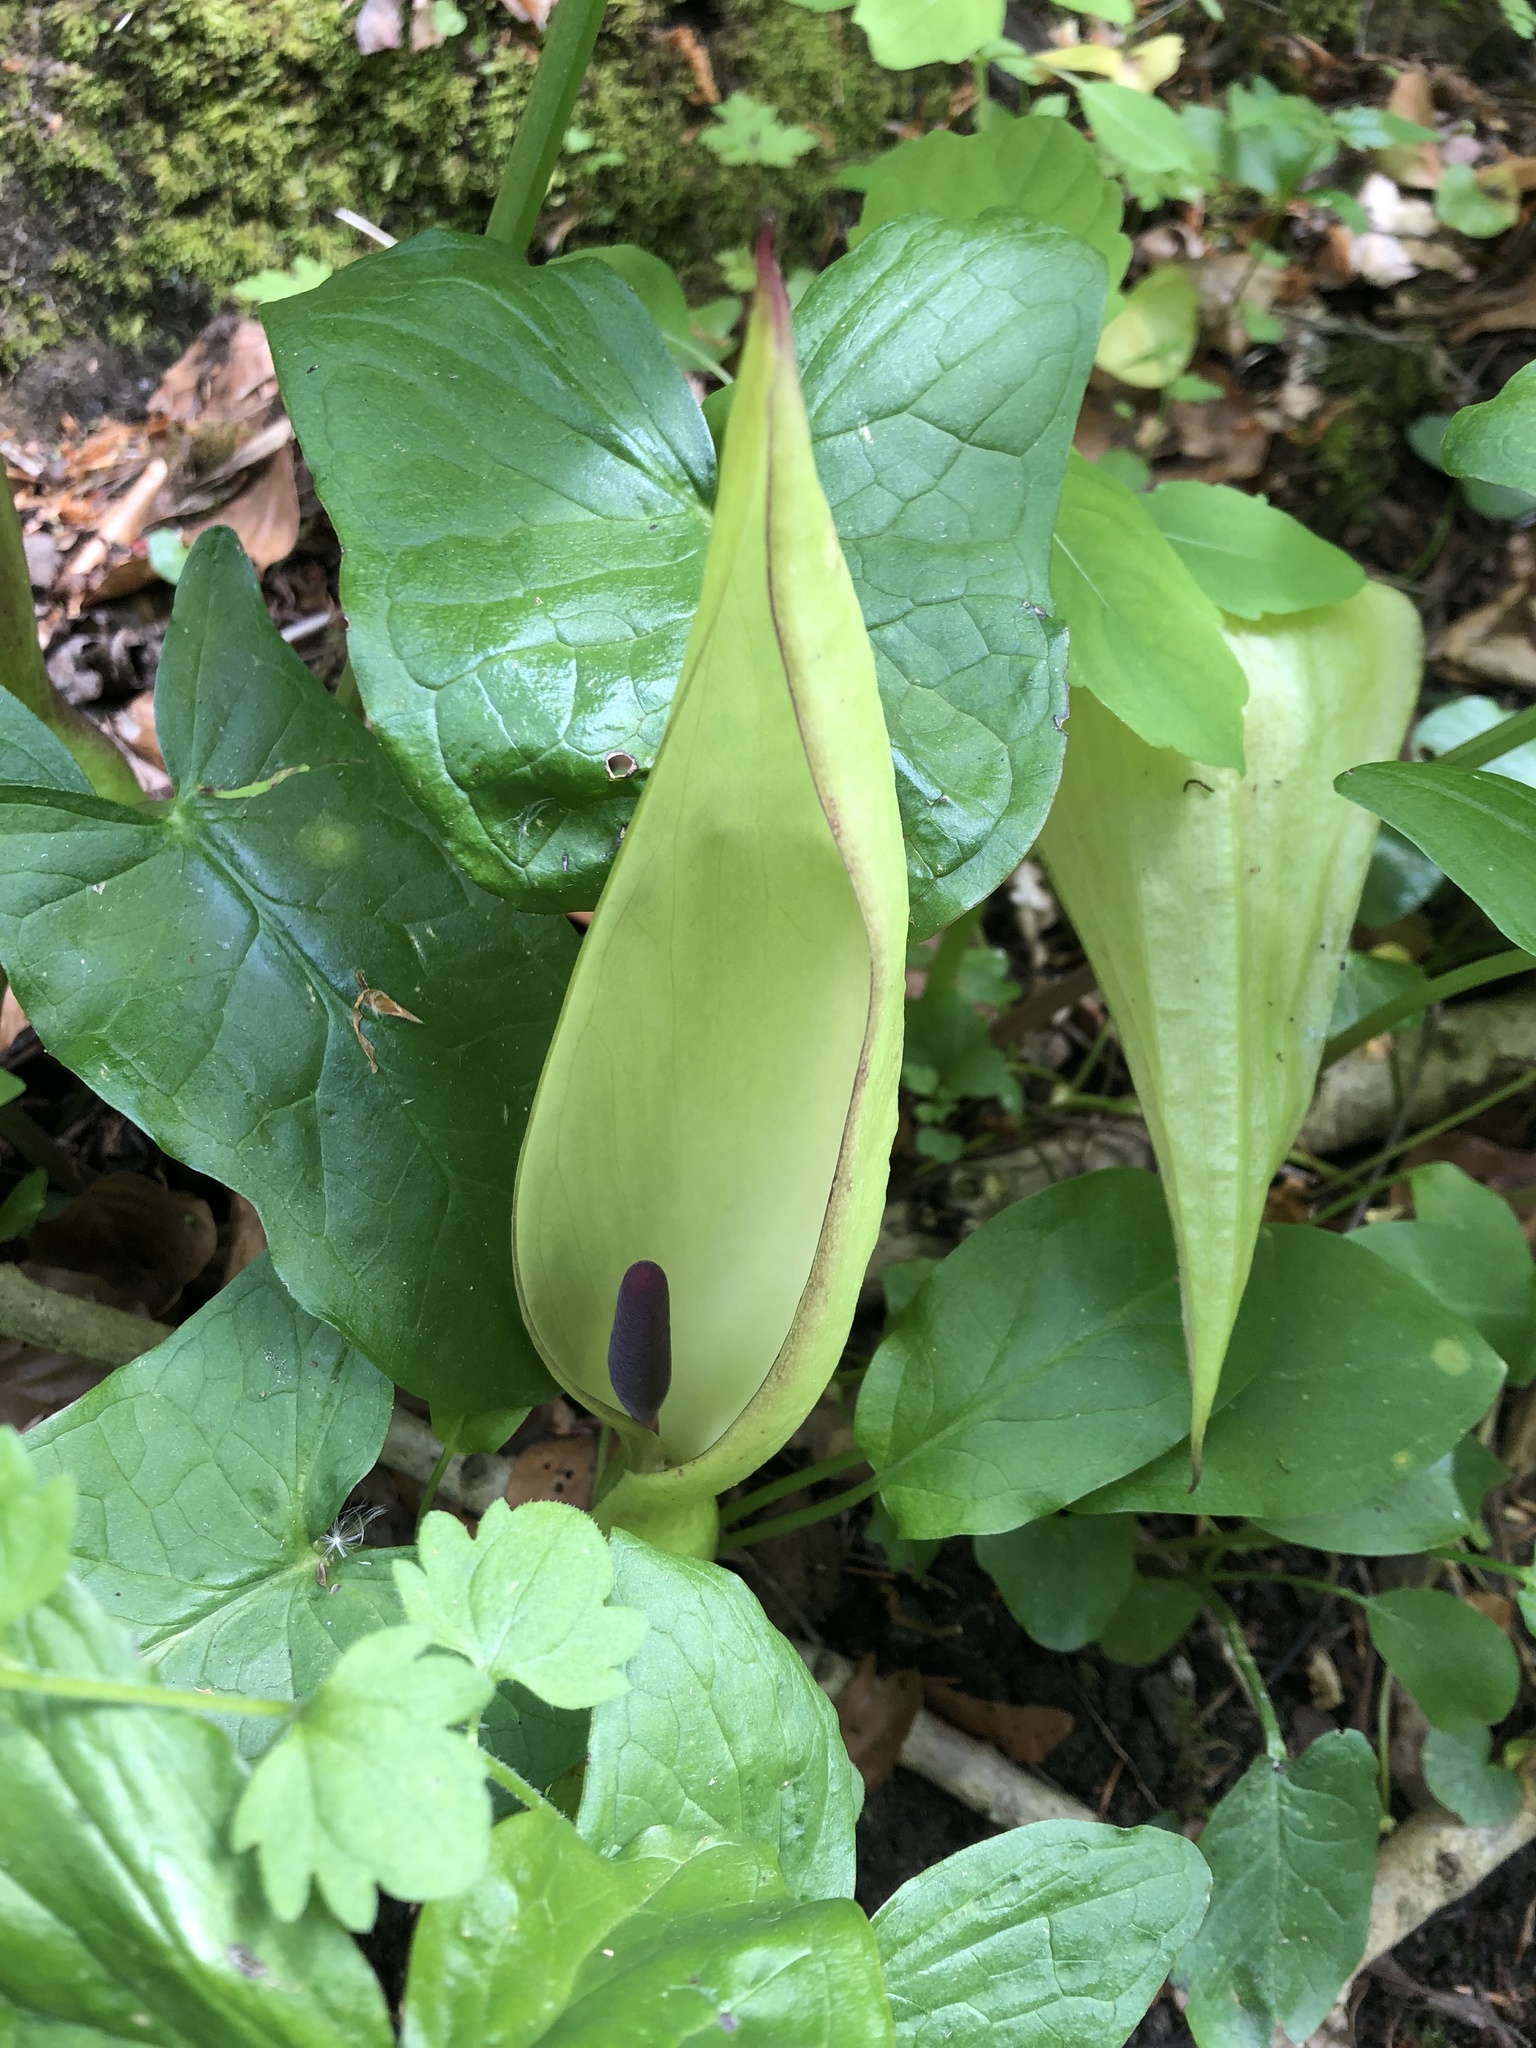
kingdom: Plantae
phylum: Tracheophyta
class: Liliopsida
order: Alismatales
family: Araceae
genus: Arum
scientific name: Arum maculatum
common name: Lords-and-ladies
